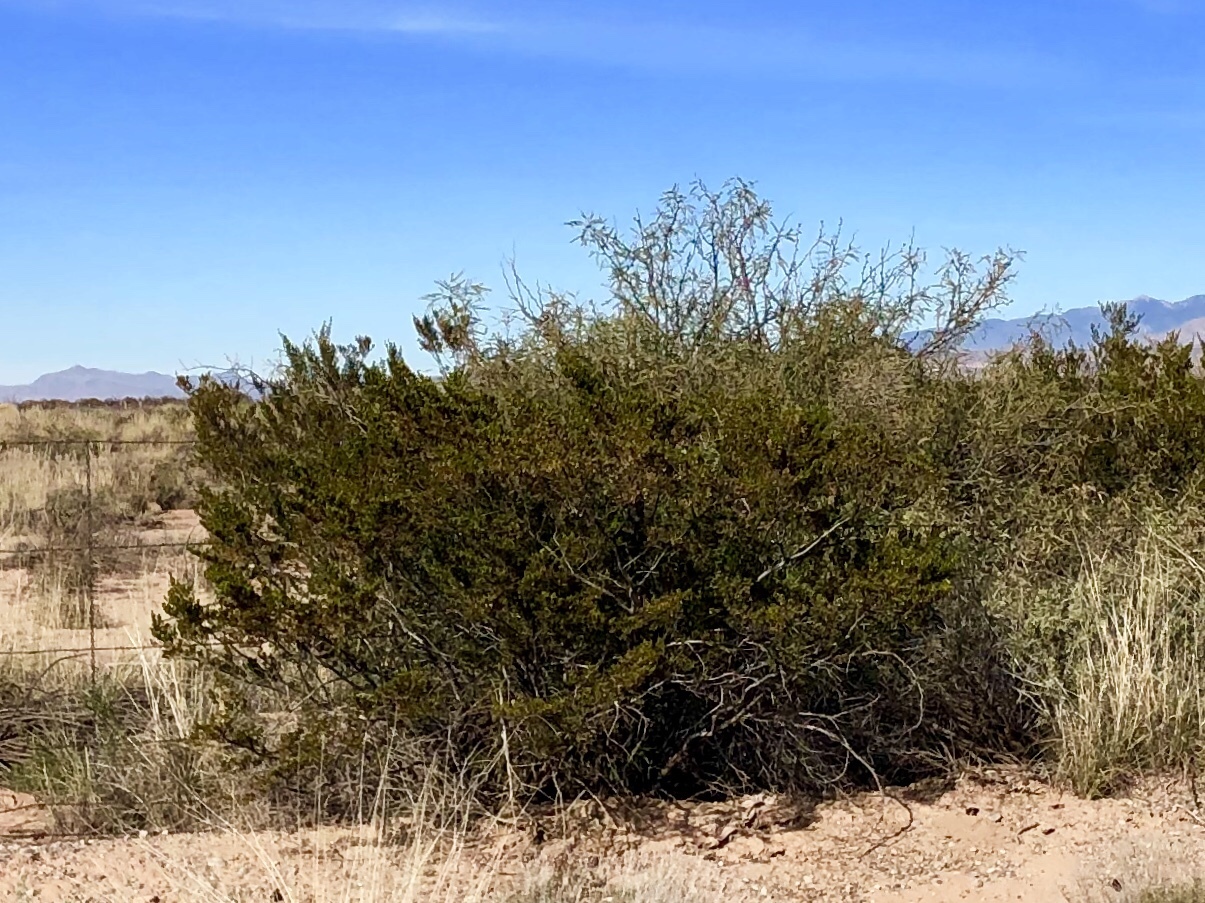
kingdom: Plantae
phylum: Tracheophyta
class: Magnoliopsida
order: Zygophyllales
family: Zygophyllaceae
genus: Larrea
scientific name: Larrea tridentata
